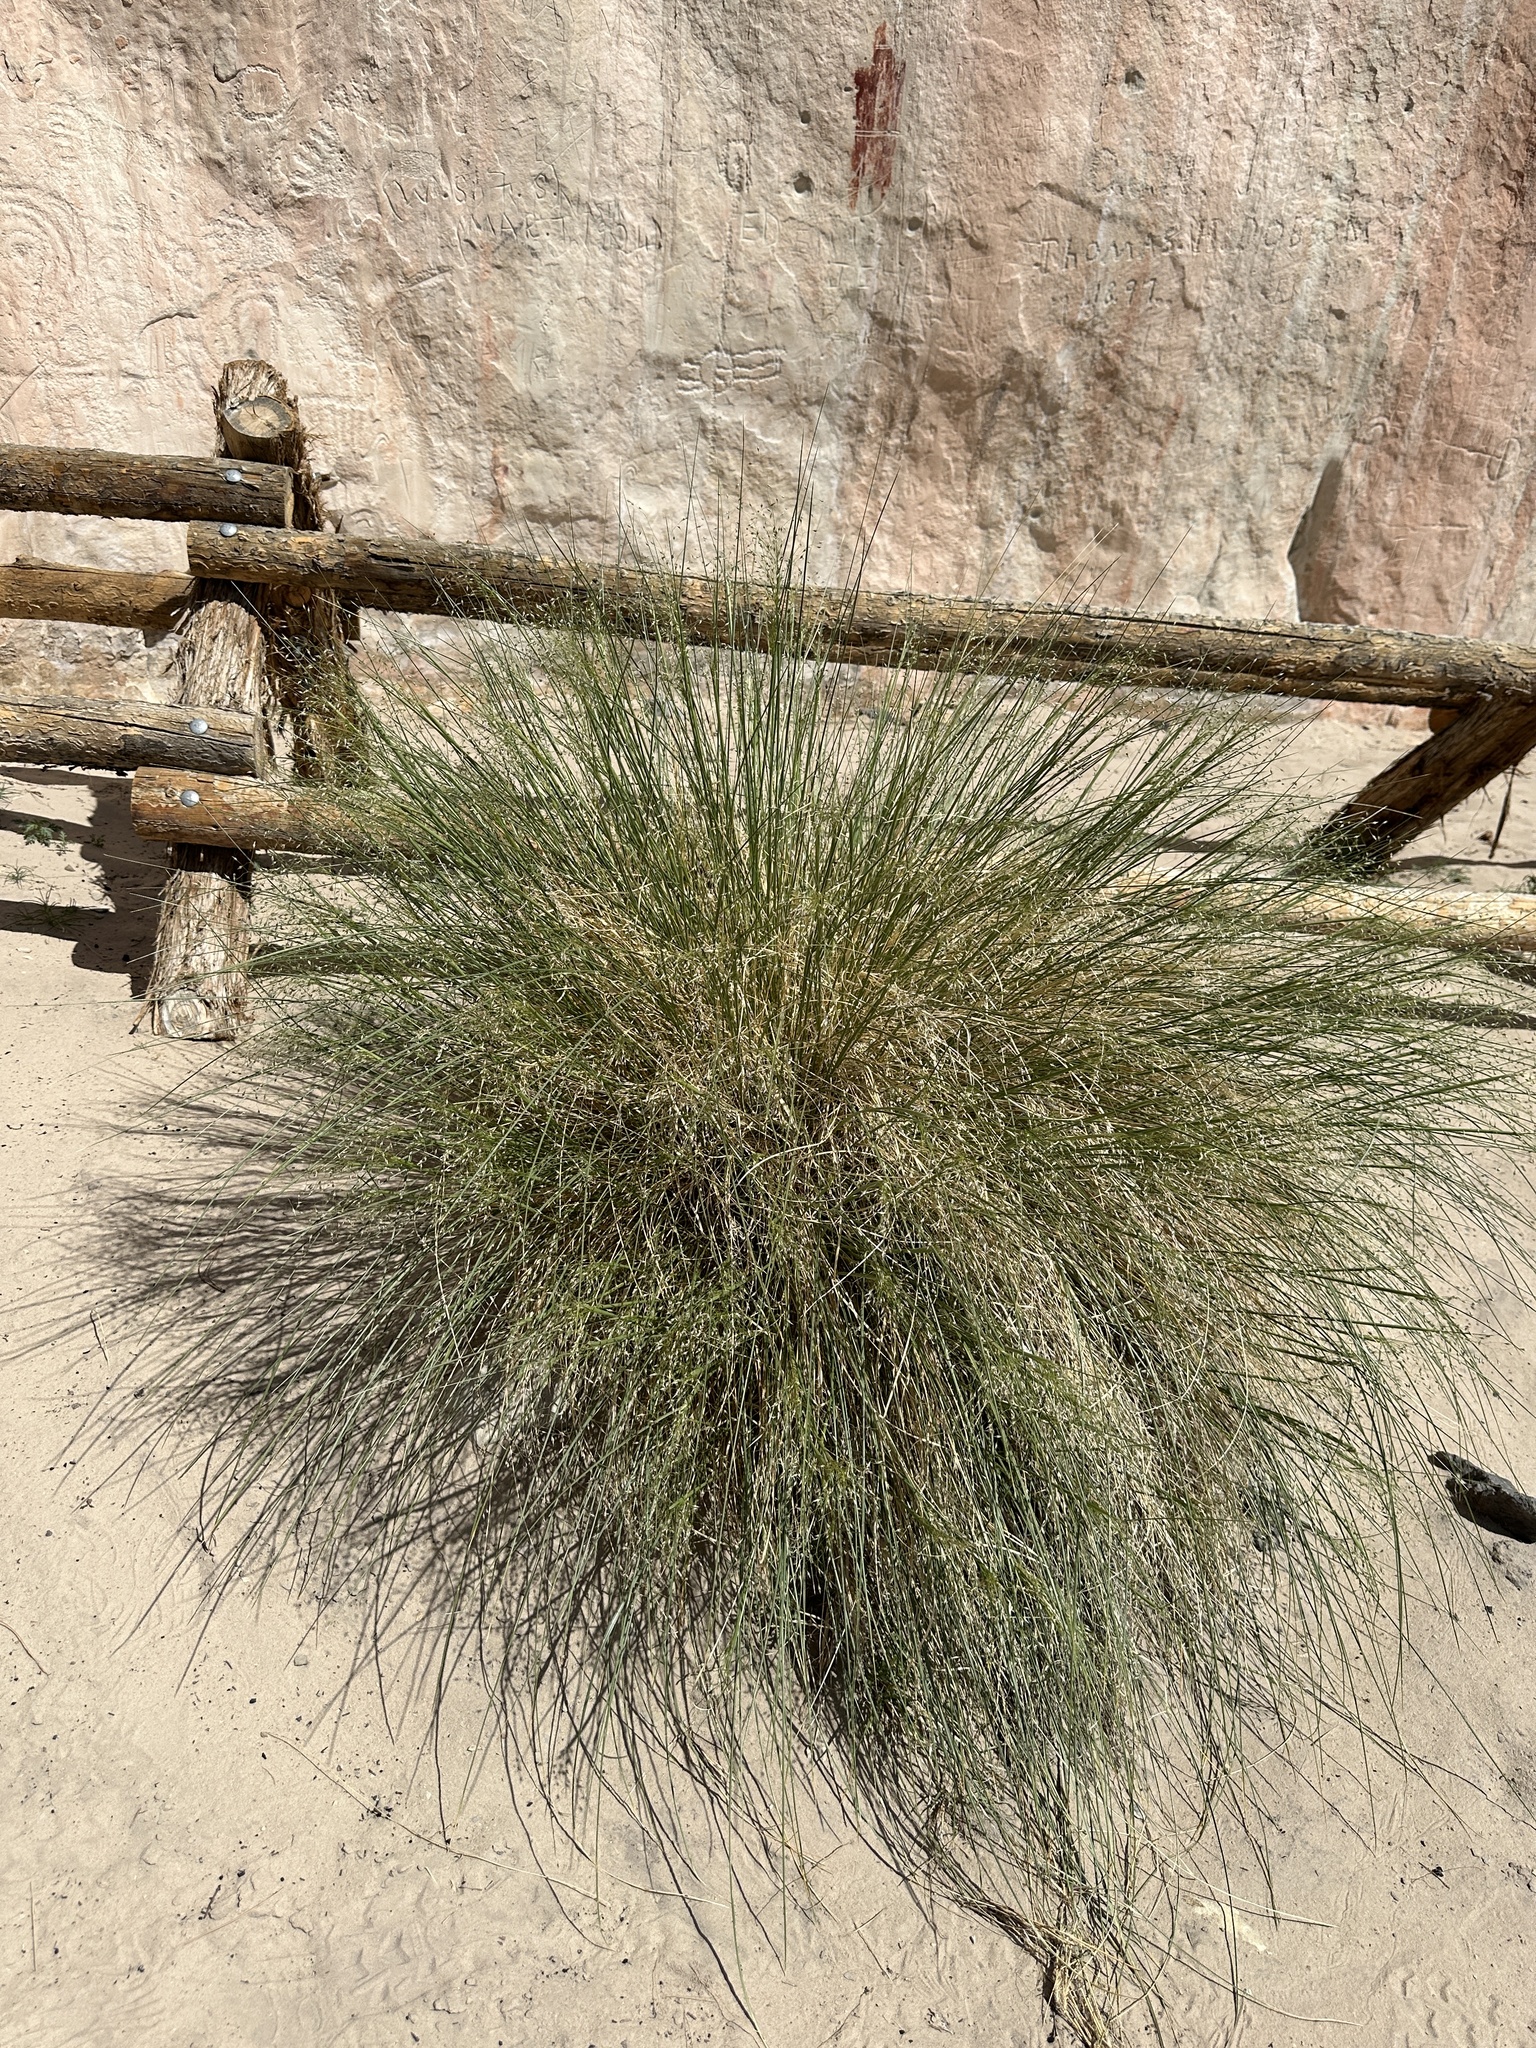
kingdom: Plantae
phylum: Tracheophyta
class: Liliopsida
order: Poales
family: Poaceae
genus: Eriocoma
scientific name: Eriocoma hymenoides
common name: Indian mountain ricegrass
